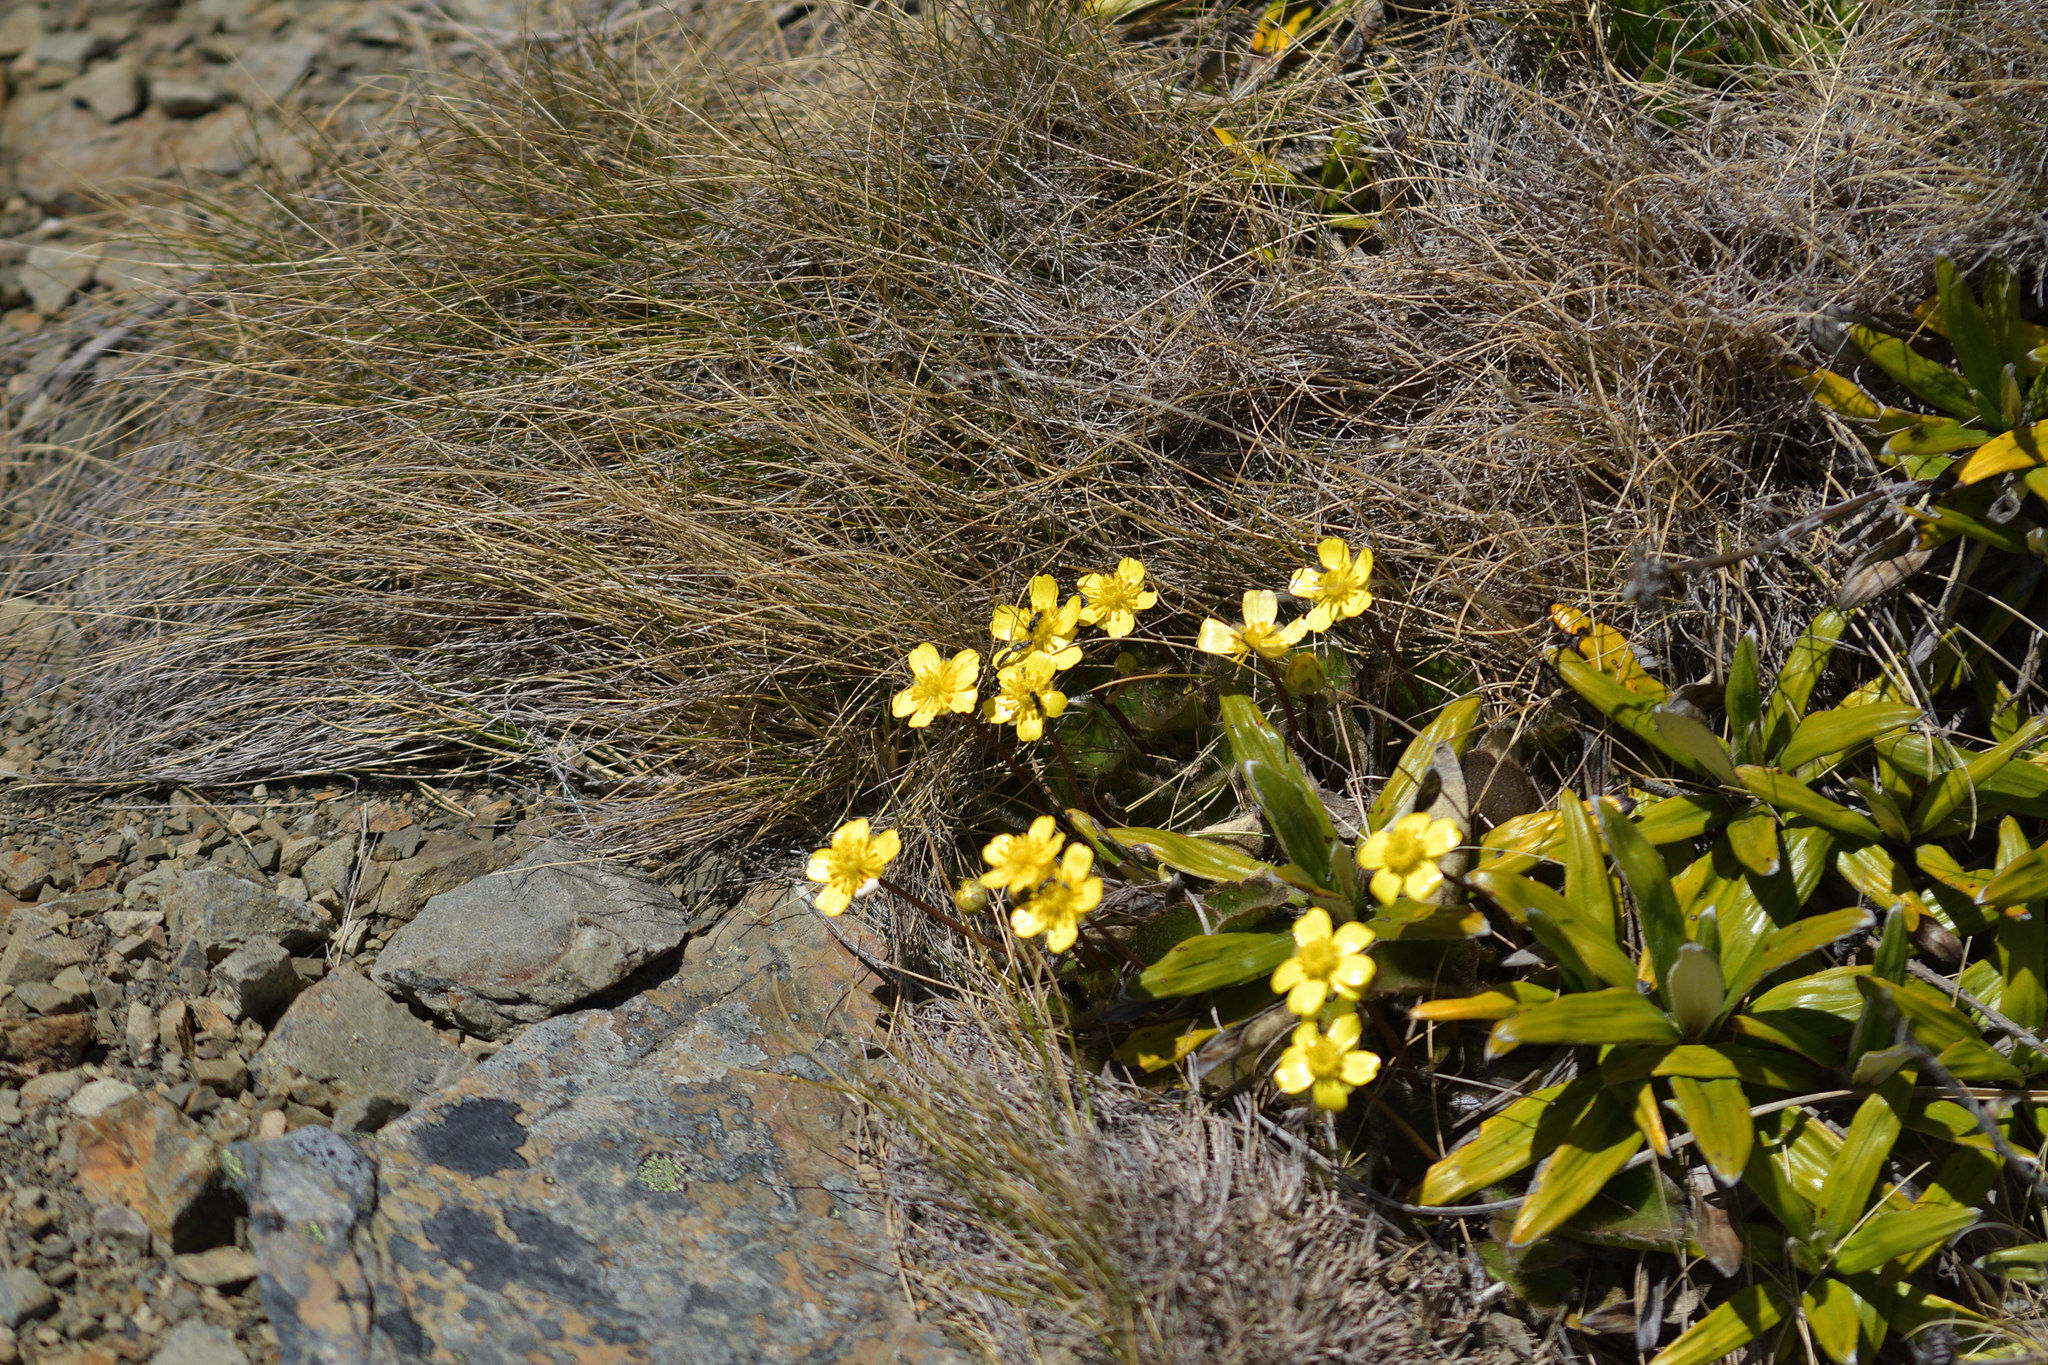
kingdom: Plantae
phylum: Tracheophyta
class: Magnoliopsida
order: Ranunculales
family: Ranunculaceae
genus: Ranunculus
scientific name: Ranunculus insignis
